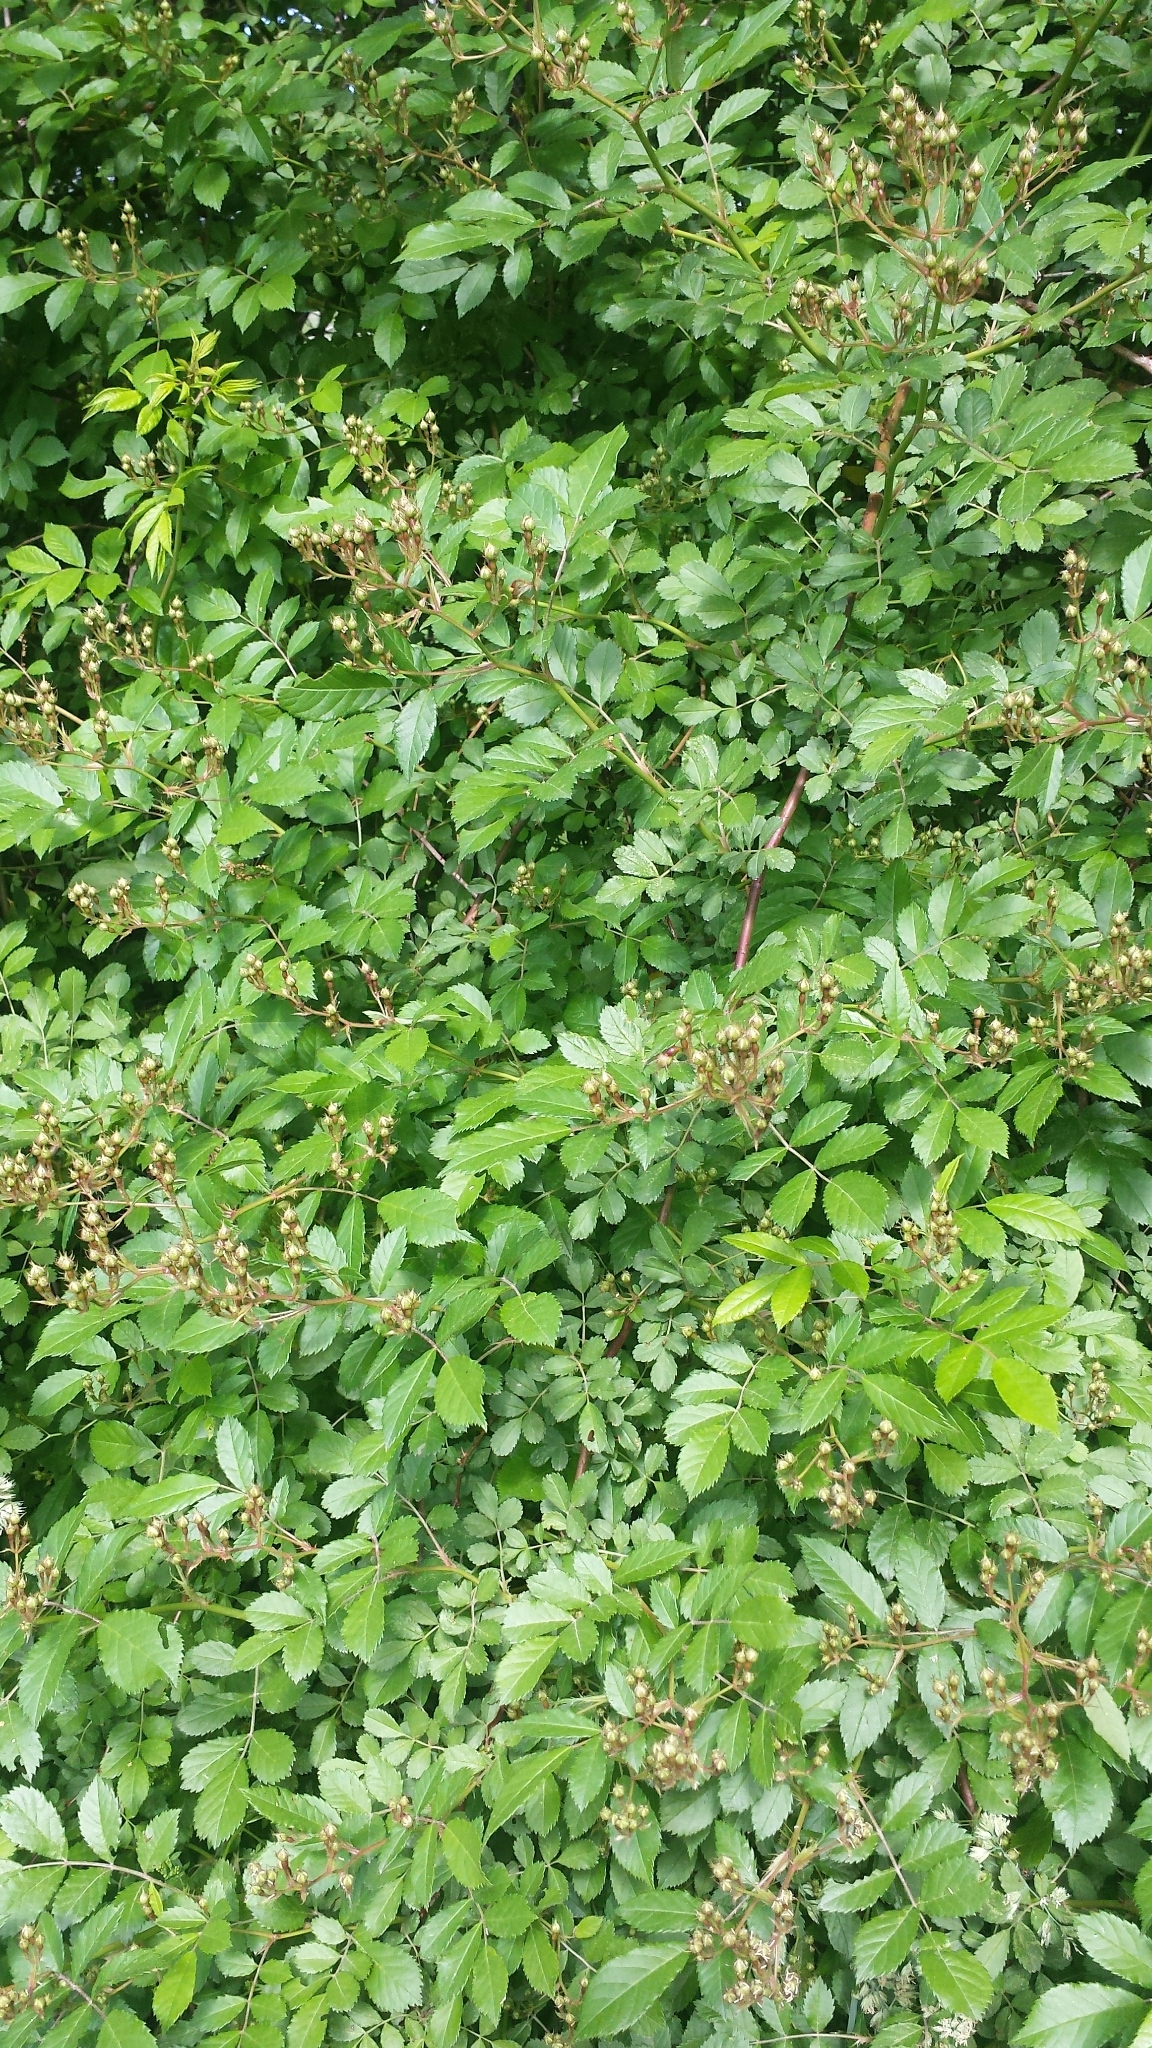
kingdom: Plantae
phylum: Tracheophyta
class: Magnoliopsida
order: Rosales
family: Rosaceae
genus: Rosa
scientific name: Rosa multiflora
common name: Multiflora rose
